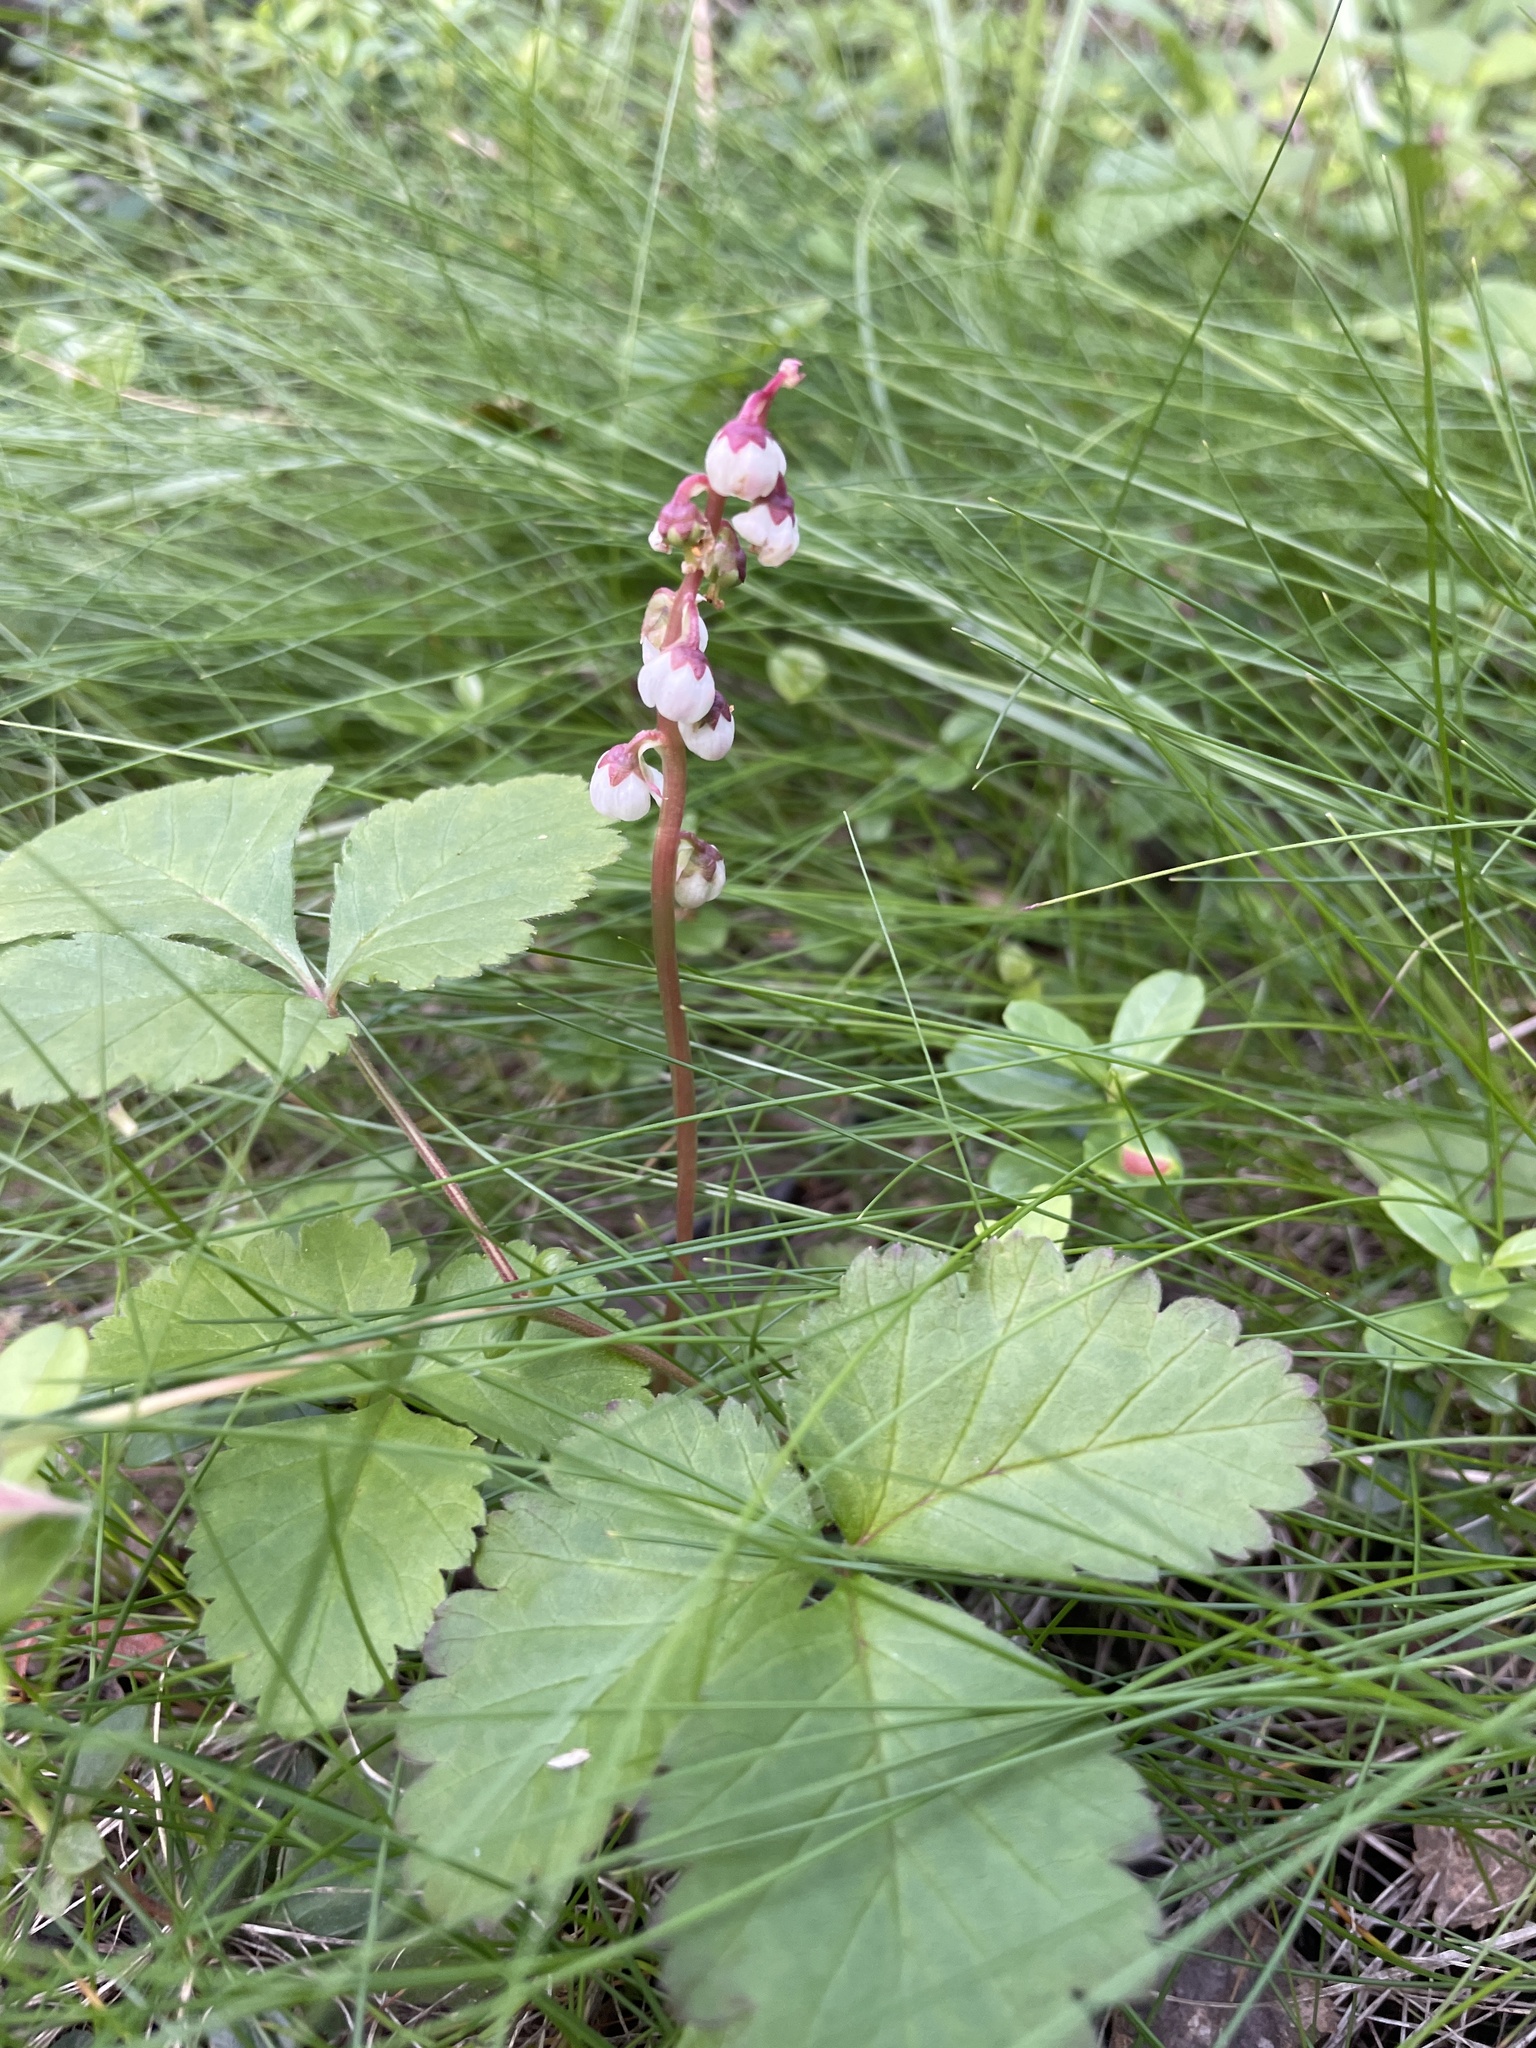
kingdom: Plantae
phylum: Tracheophyta
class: Magnoliopsida
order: Ericales
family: Ericaceae
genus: Pyrola
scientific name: Pyrola minor
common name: Common wintergreen
